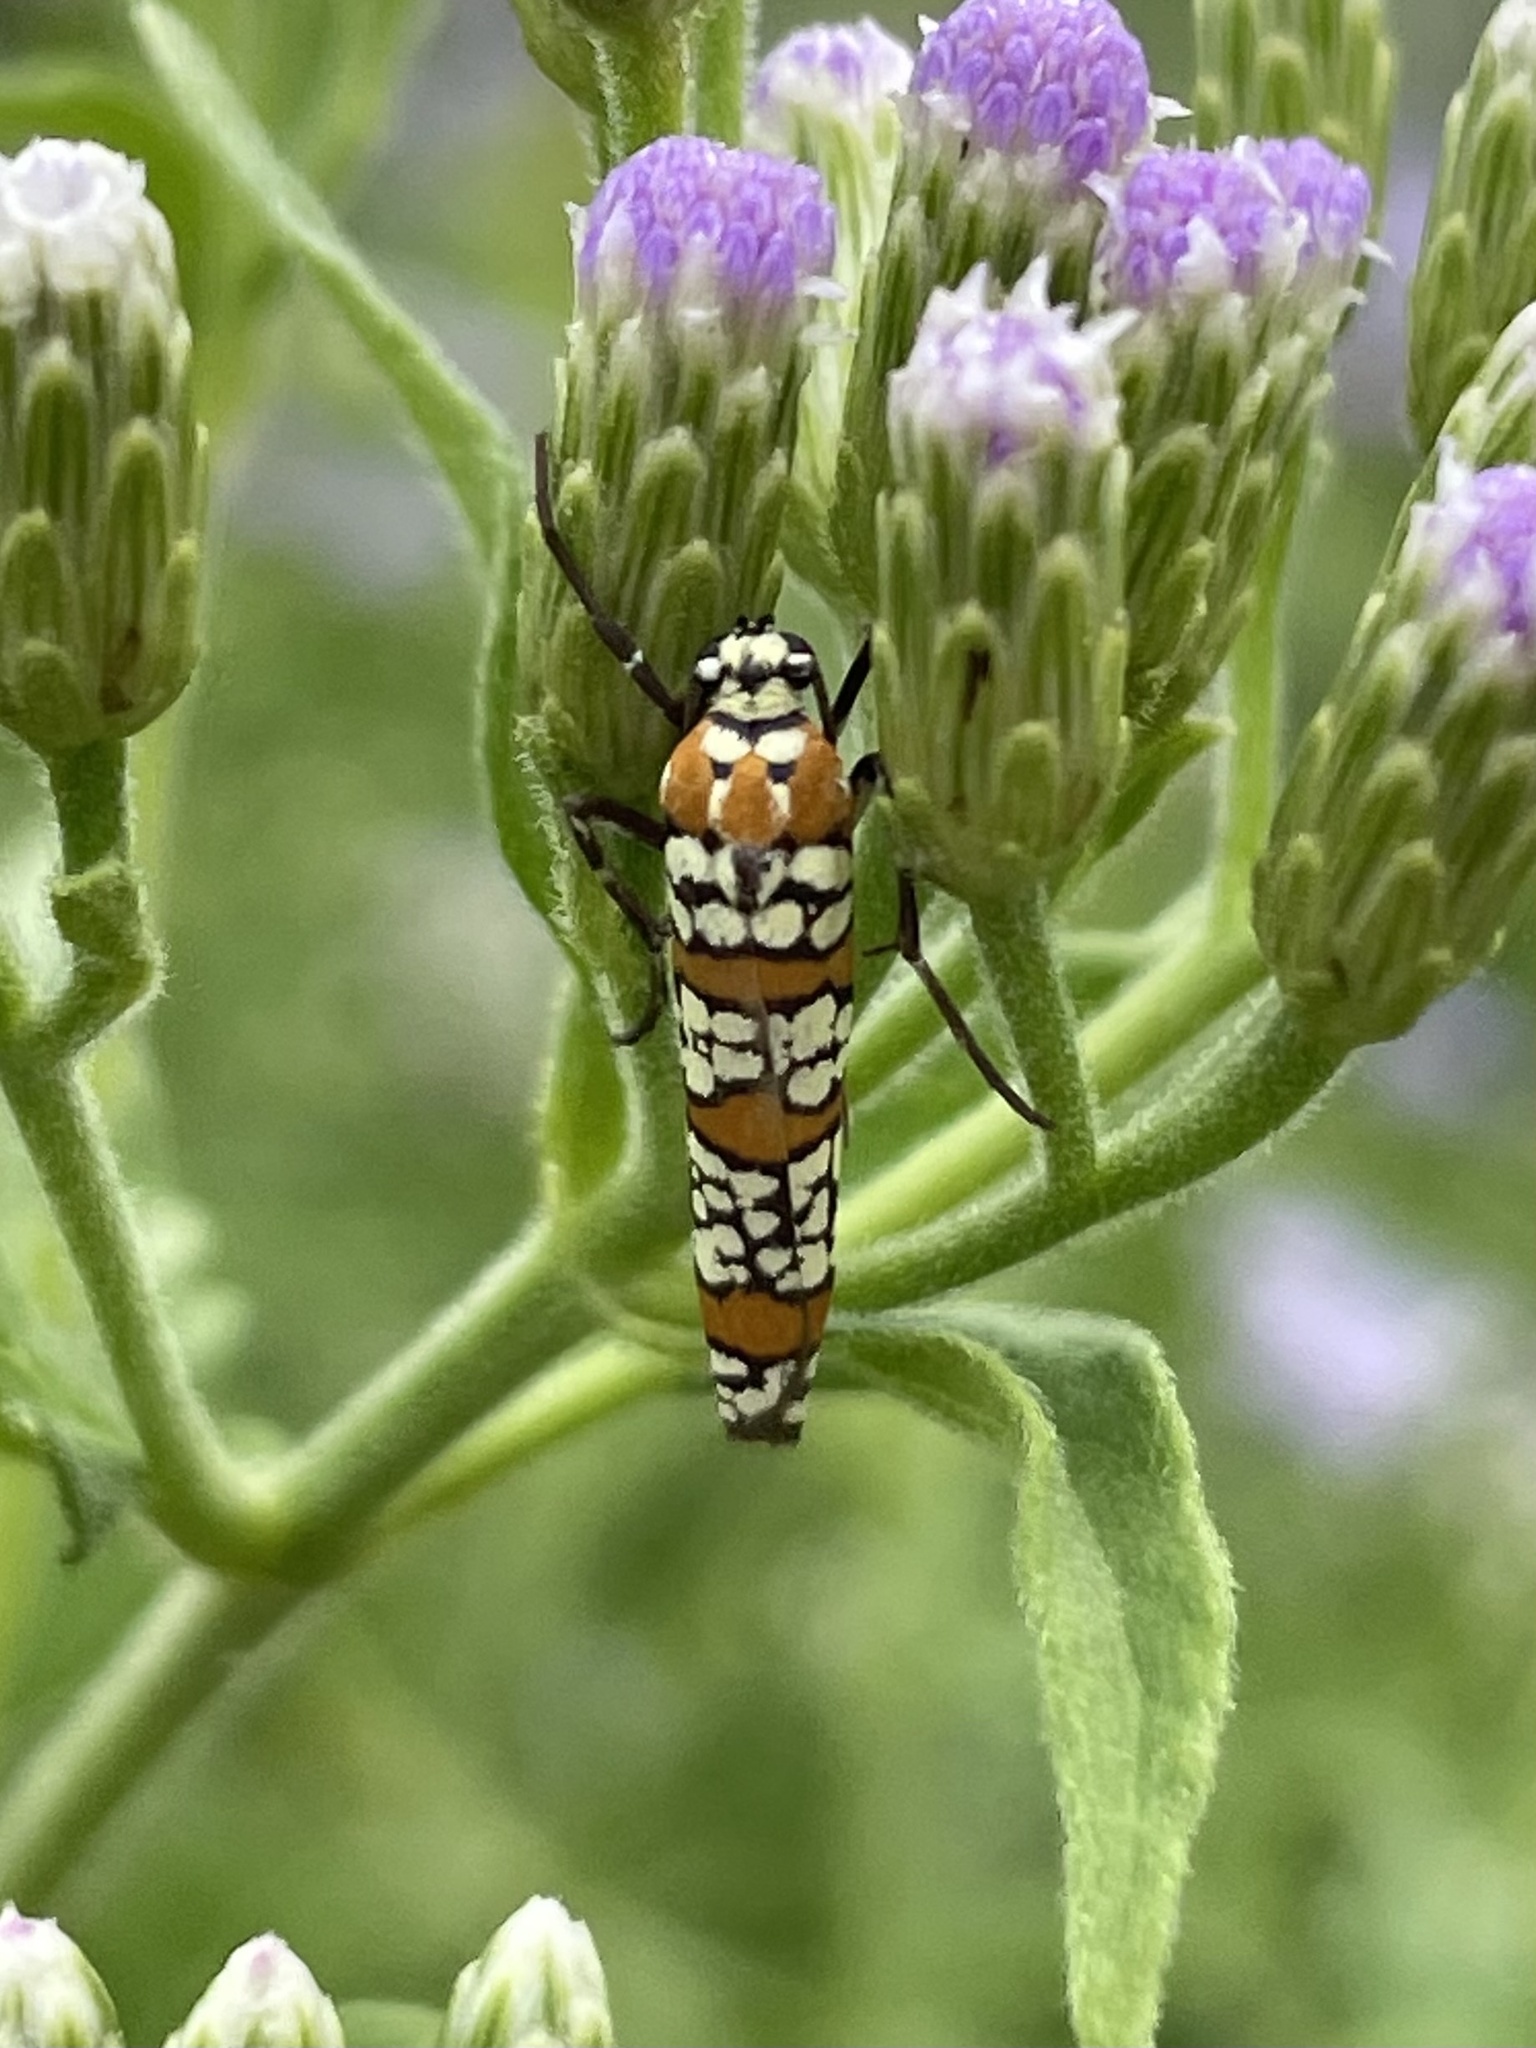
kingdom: Animalia
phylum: Arthropoda
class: Insecta
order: Lepidoptera
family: Attevidae
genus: Atteva
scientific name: Atteva punctella
